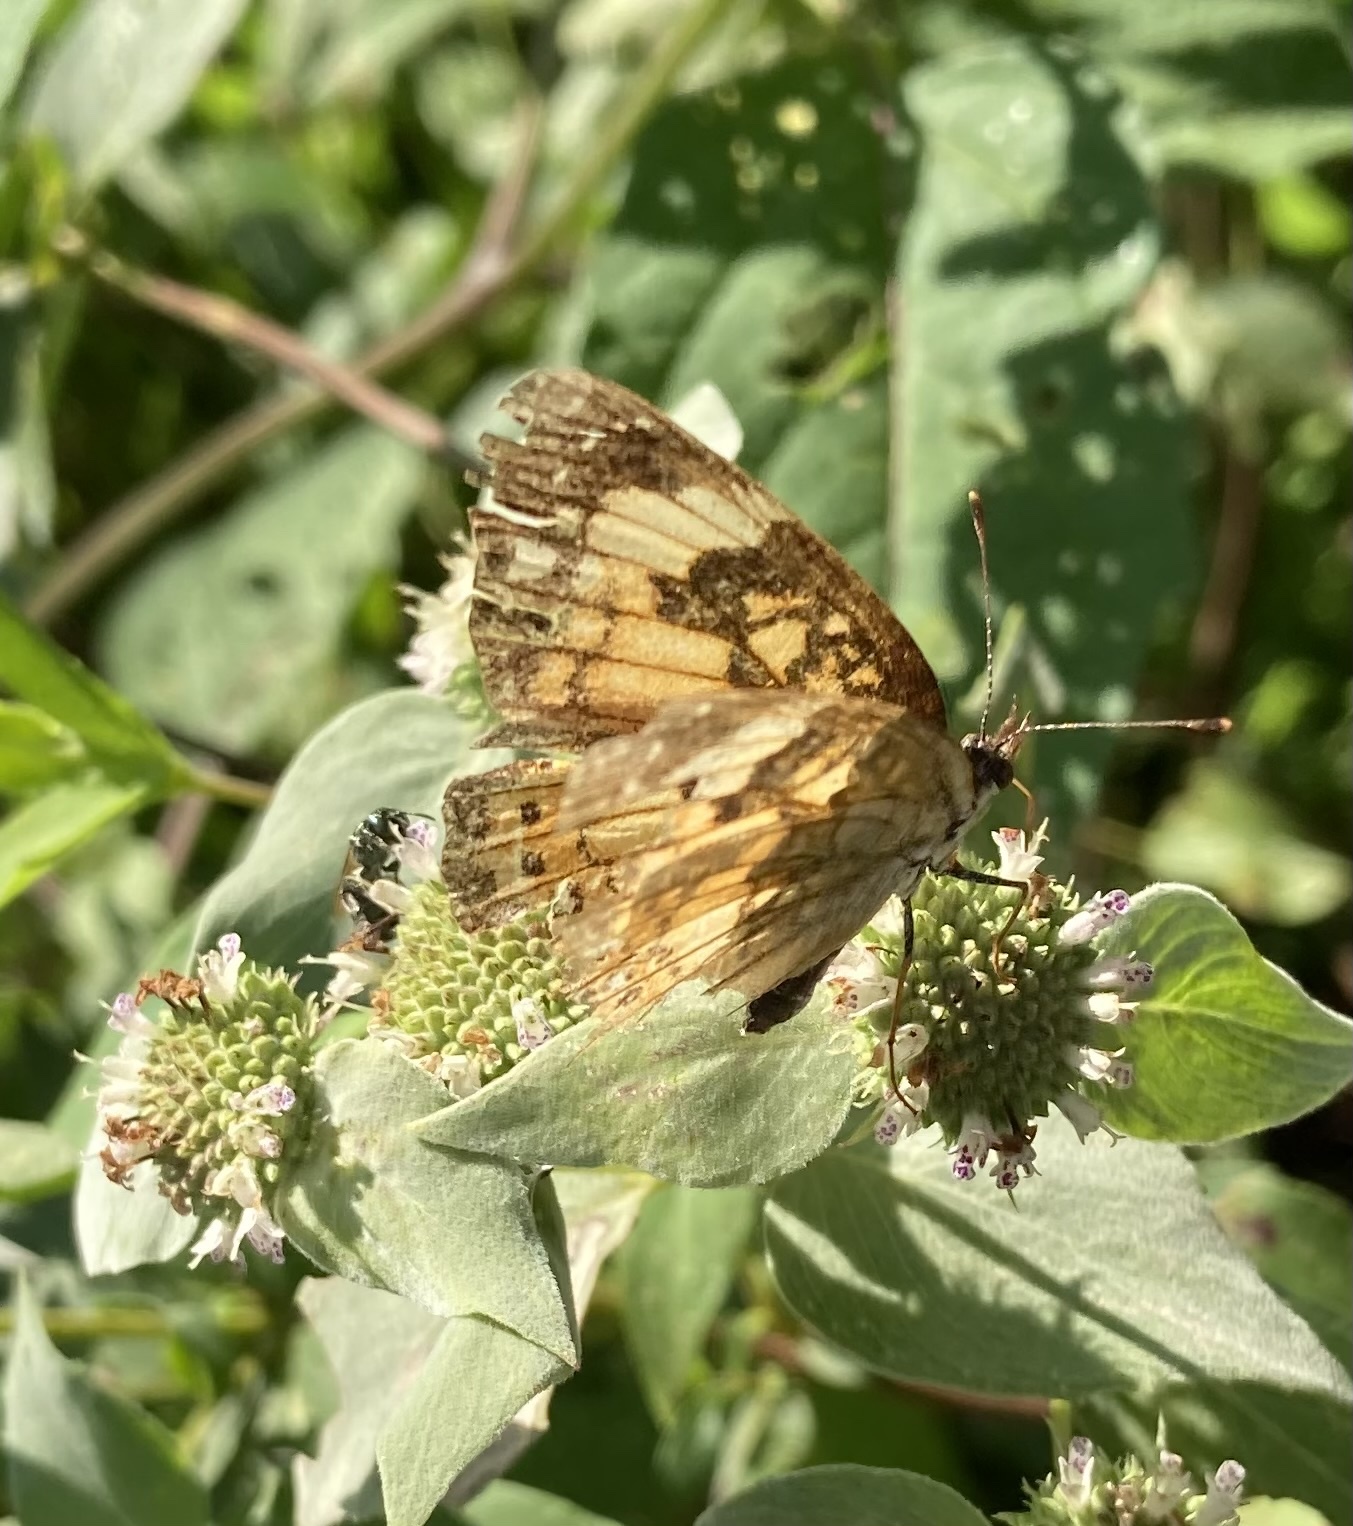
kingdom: Animalia
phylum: Arthropoda
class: Insecta
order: Lepidoptera
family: Nymphalidae
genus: Chlosyne
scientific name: Chlosyne nycteis
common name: Silvery checkerspot
